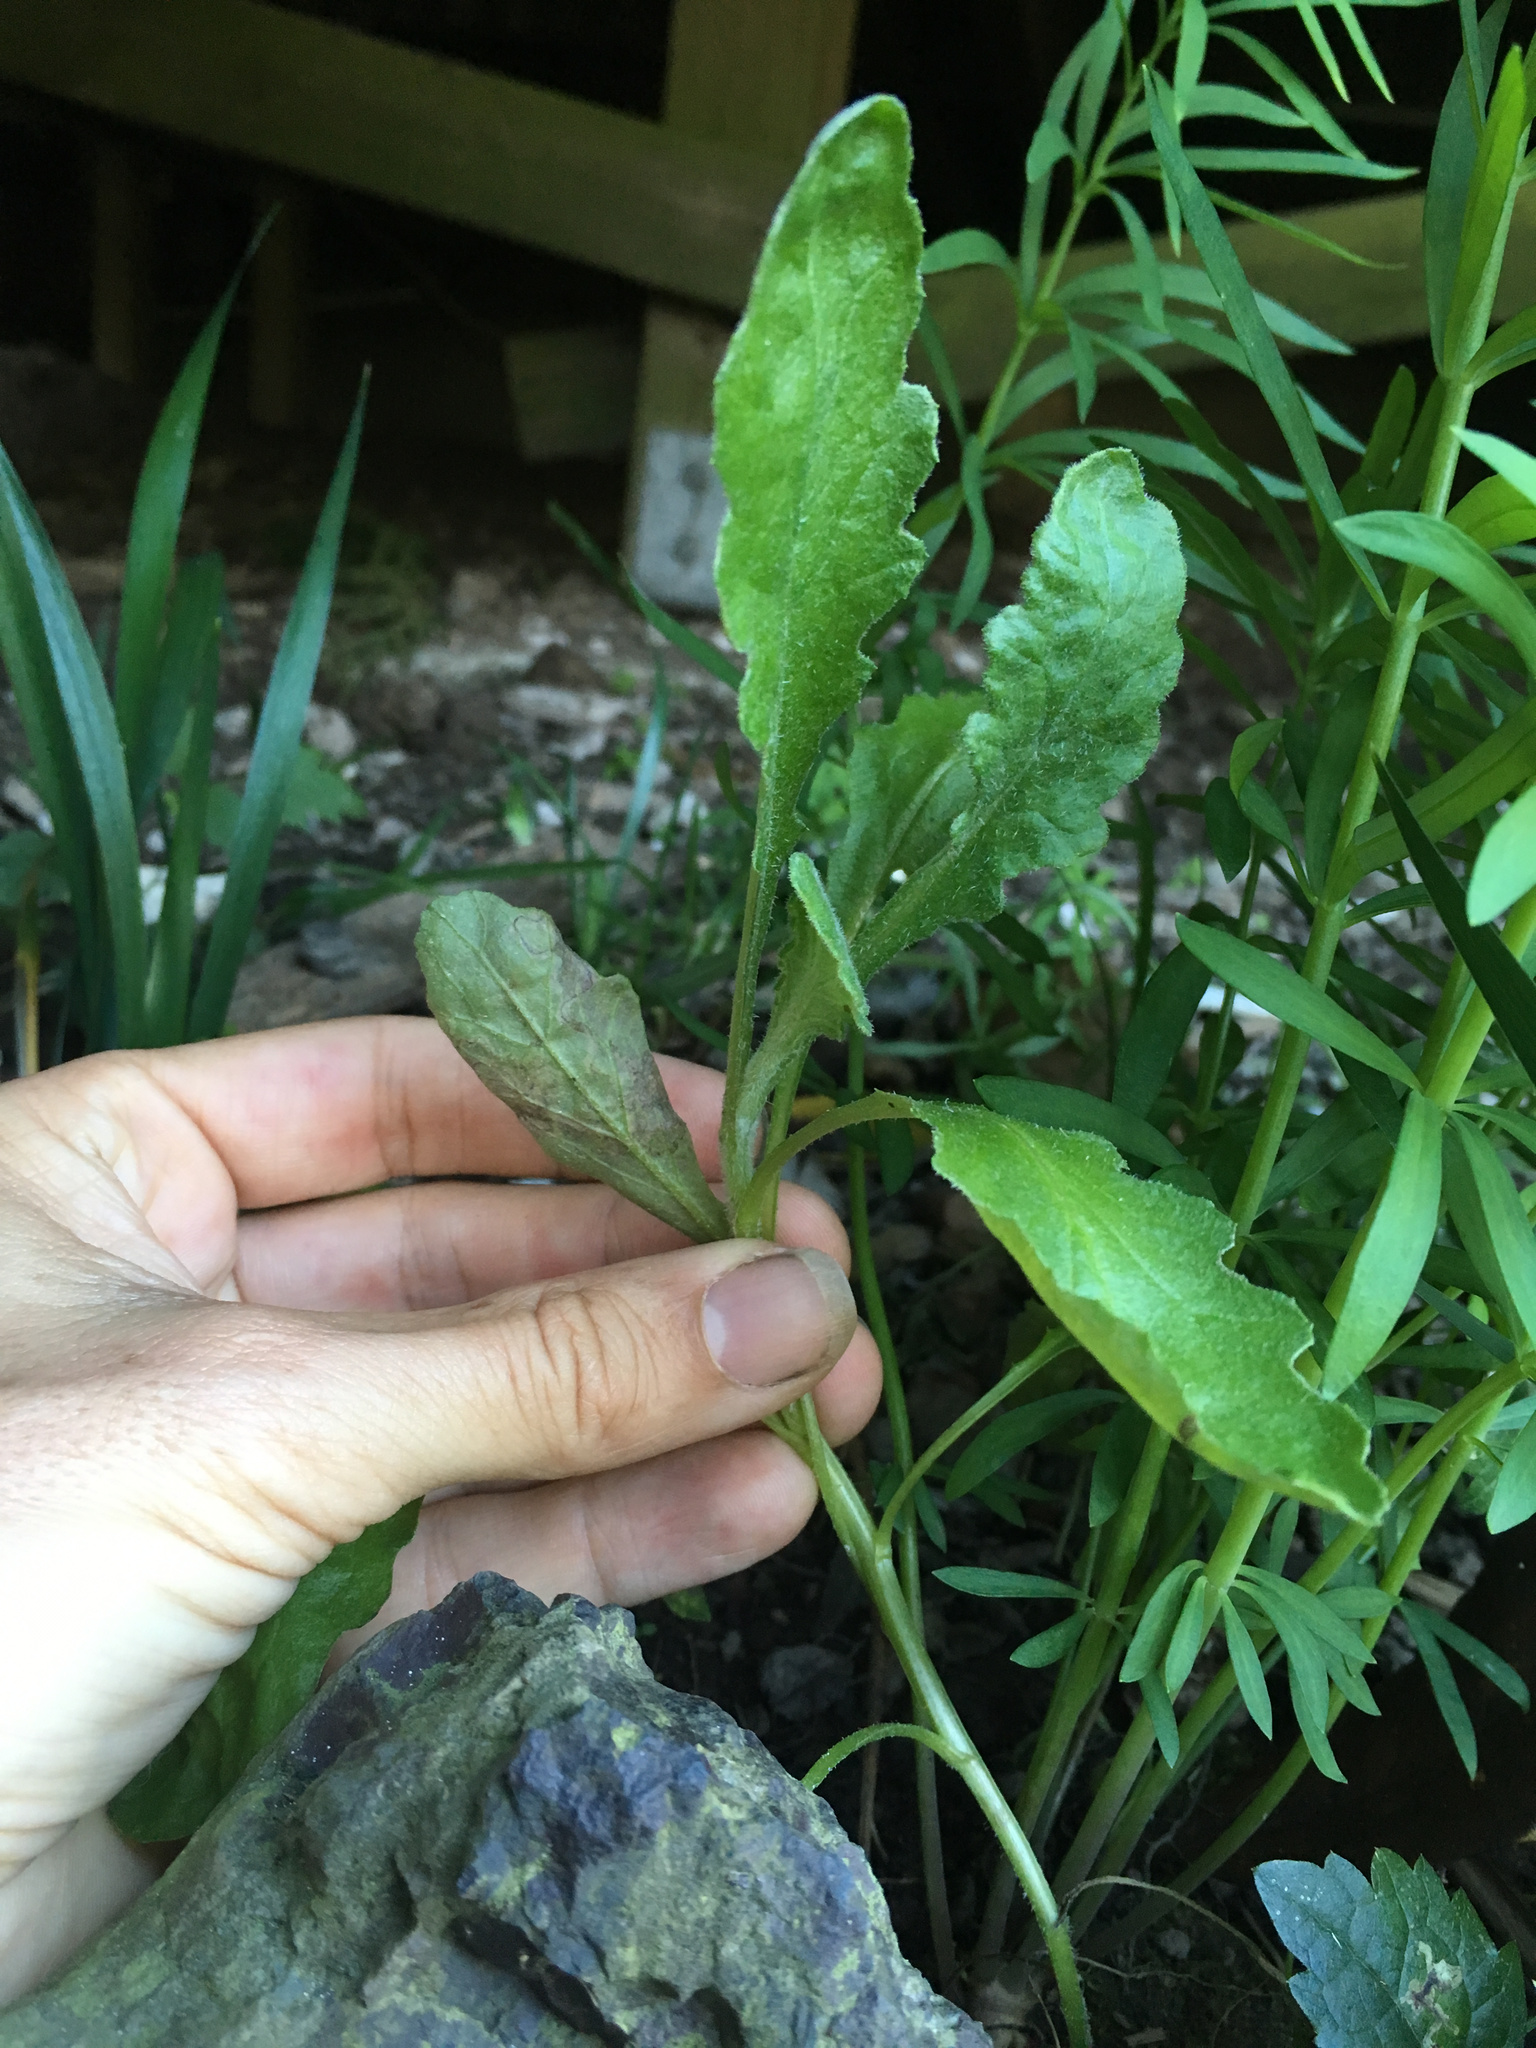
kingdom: Plantae
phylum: Tracheophyta
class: Magnoliopsida
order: Asterales
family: Asteraceae
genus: Senecio
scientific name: Senecio glomeratus
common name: Cutleaf burnweed
